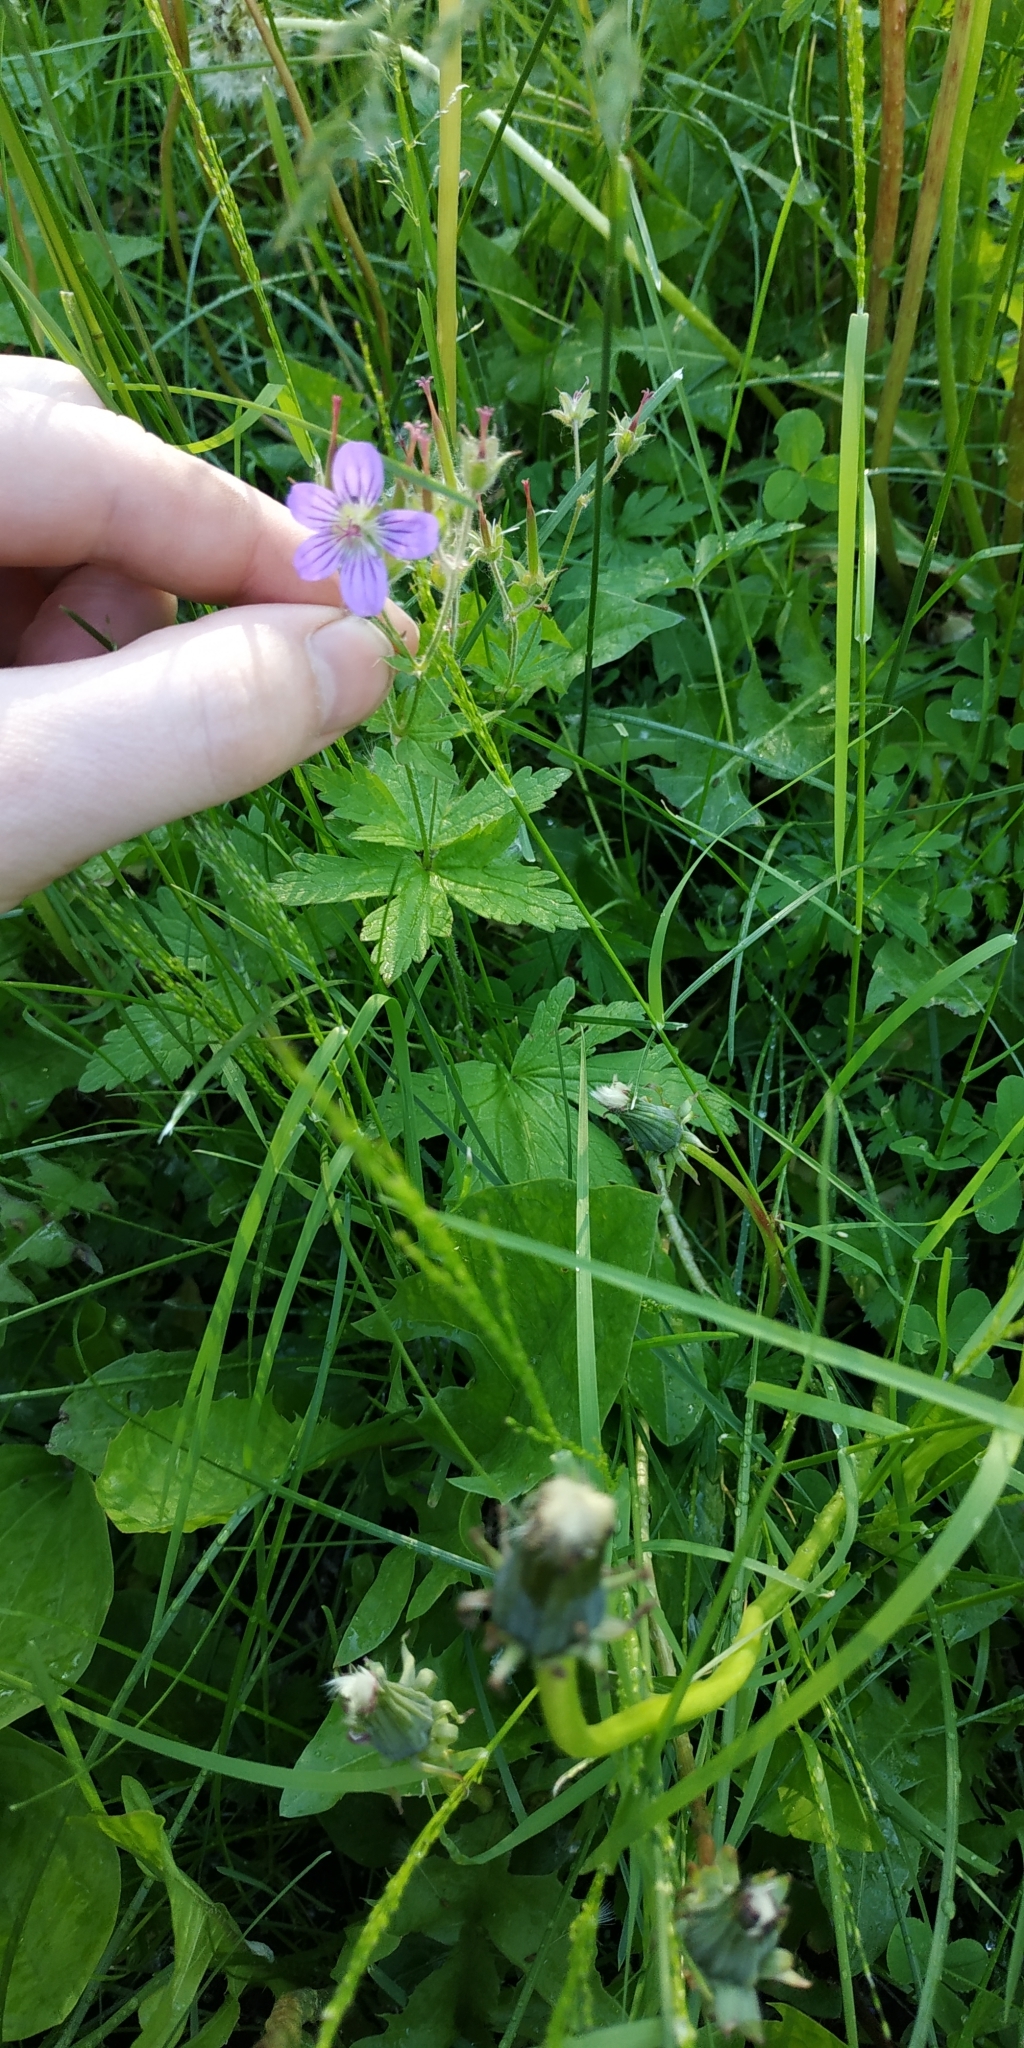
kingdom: Plantae
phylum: Tracheophyta
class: Magnoliopsida
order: Geraniales
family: Geraniaceae
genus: Geranium
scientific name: Geranium sylvaticum
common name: Wood crane's-bill
